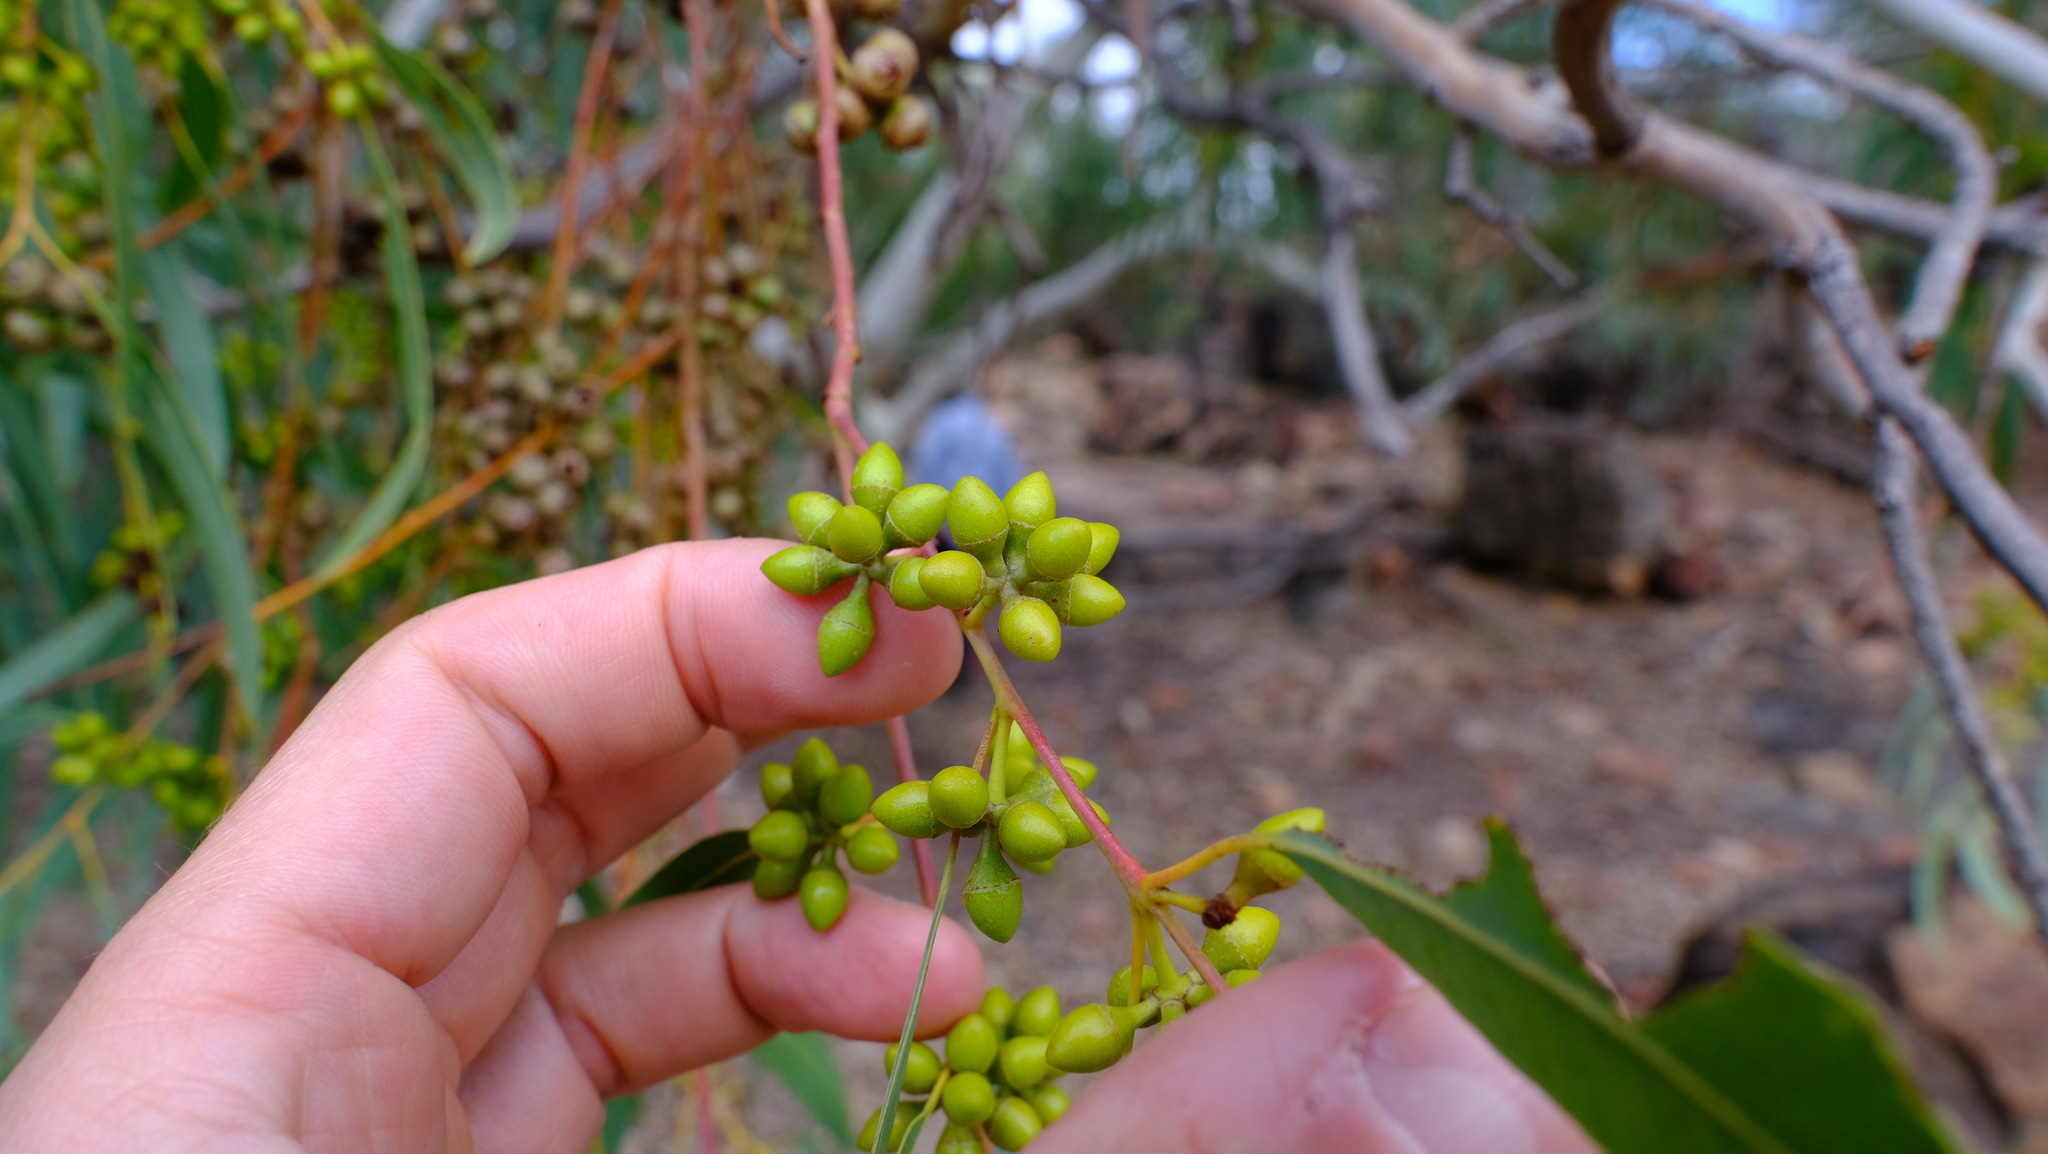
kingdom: Plantae
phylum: Tracheophyta
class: Magnoliopsida
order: Myrtales
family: Myrtaceae
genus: Eucalyptus
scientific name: Eucalyptus camaldulensis
